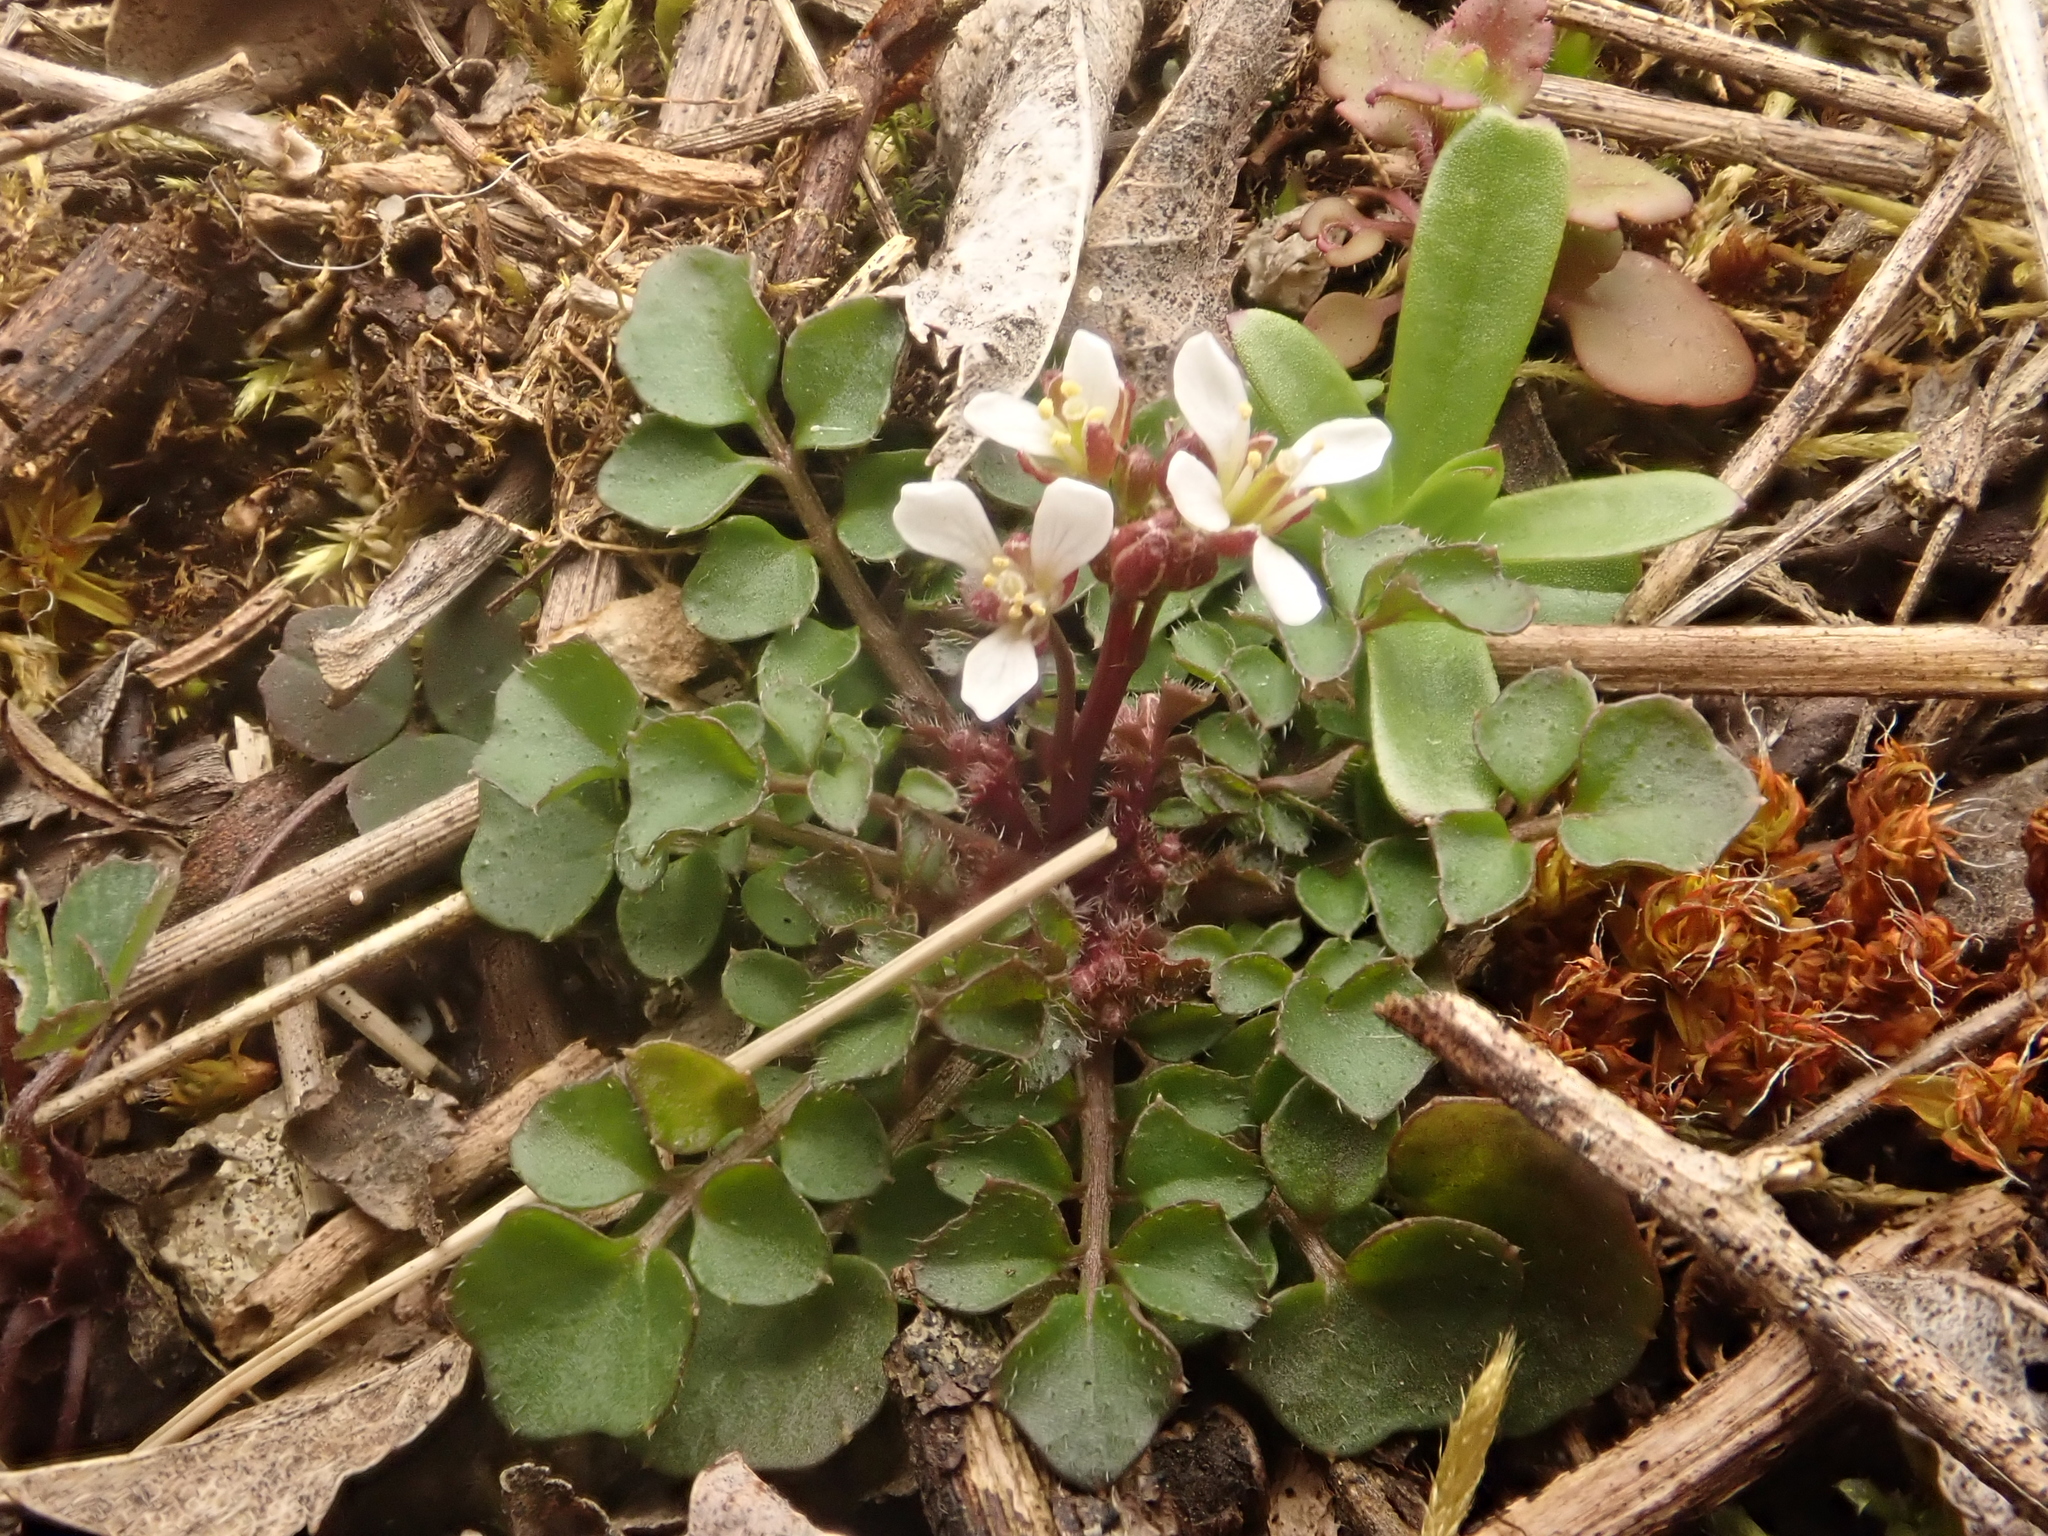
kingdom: Plantae
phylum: Tracheophyta
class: Magnoliopsida
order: Brassicales
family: Brassicaceae
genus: Cardamine
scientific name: Cardamine hirsuta
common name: Hairy bittercress
